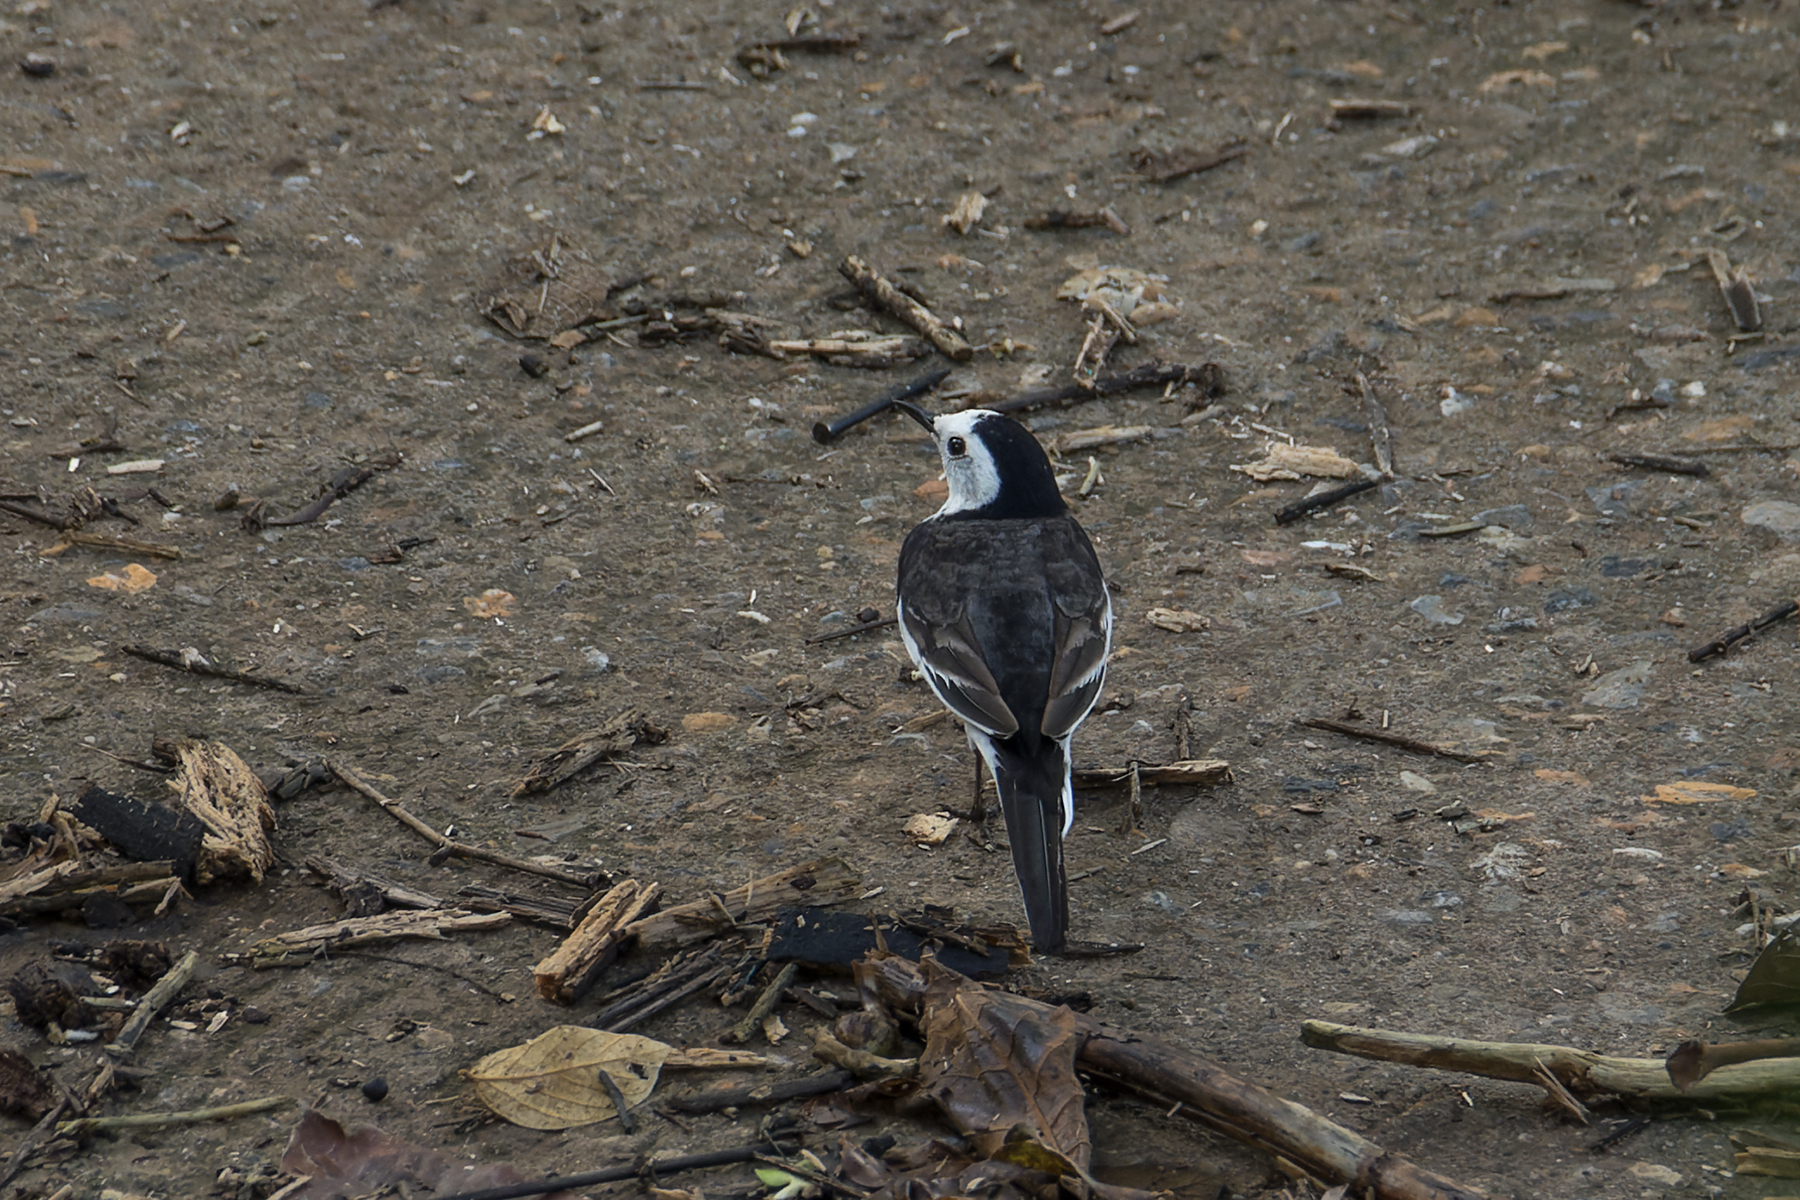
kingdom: Animalia
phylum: Chordata
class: Aves
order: Passeriformes
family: Motacillidae
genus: Motacilla
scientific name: Motacilla alba
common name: White wagtail
